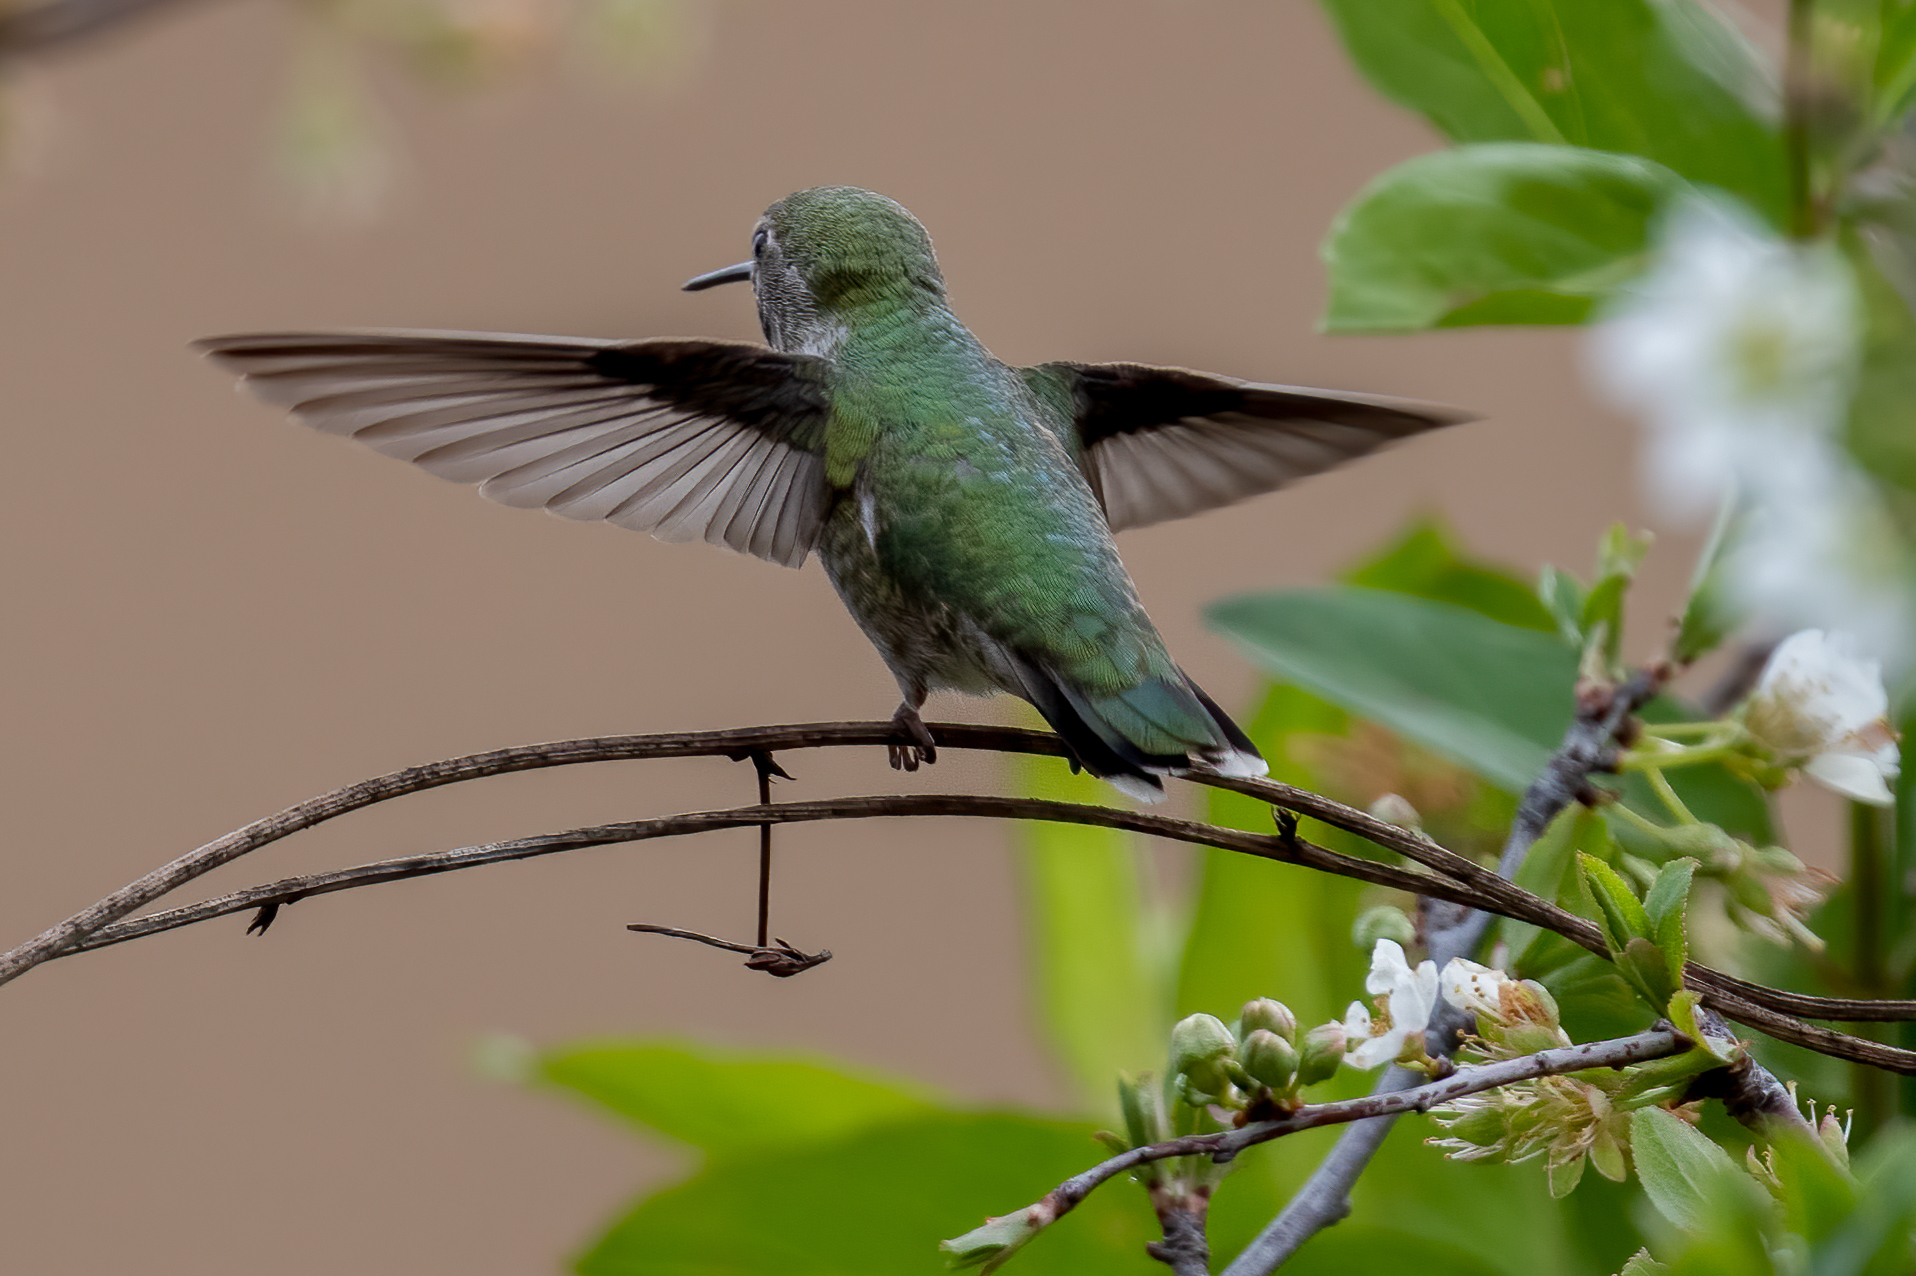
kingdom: Animalia
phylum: Chordata
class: Aves
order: Apodiformes
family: Trochilidae
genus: Calypte
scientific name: Calypte anna
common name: Anna's hummingbird
